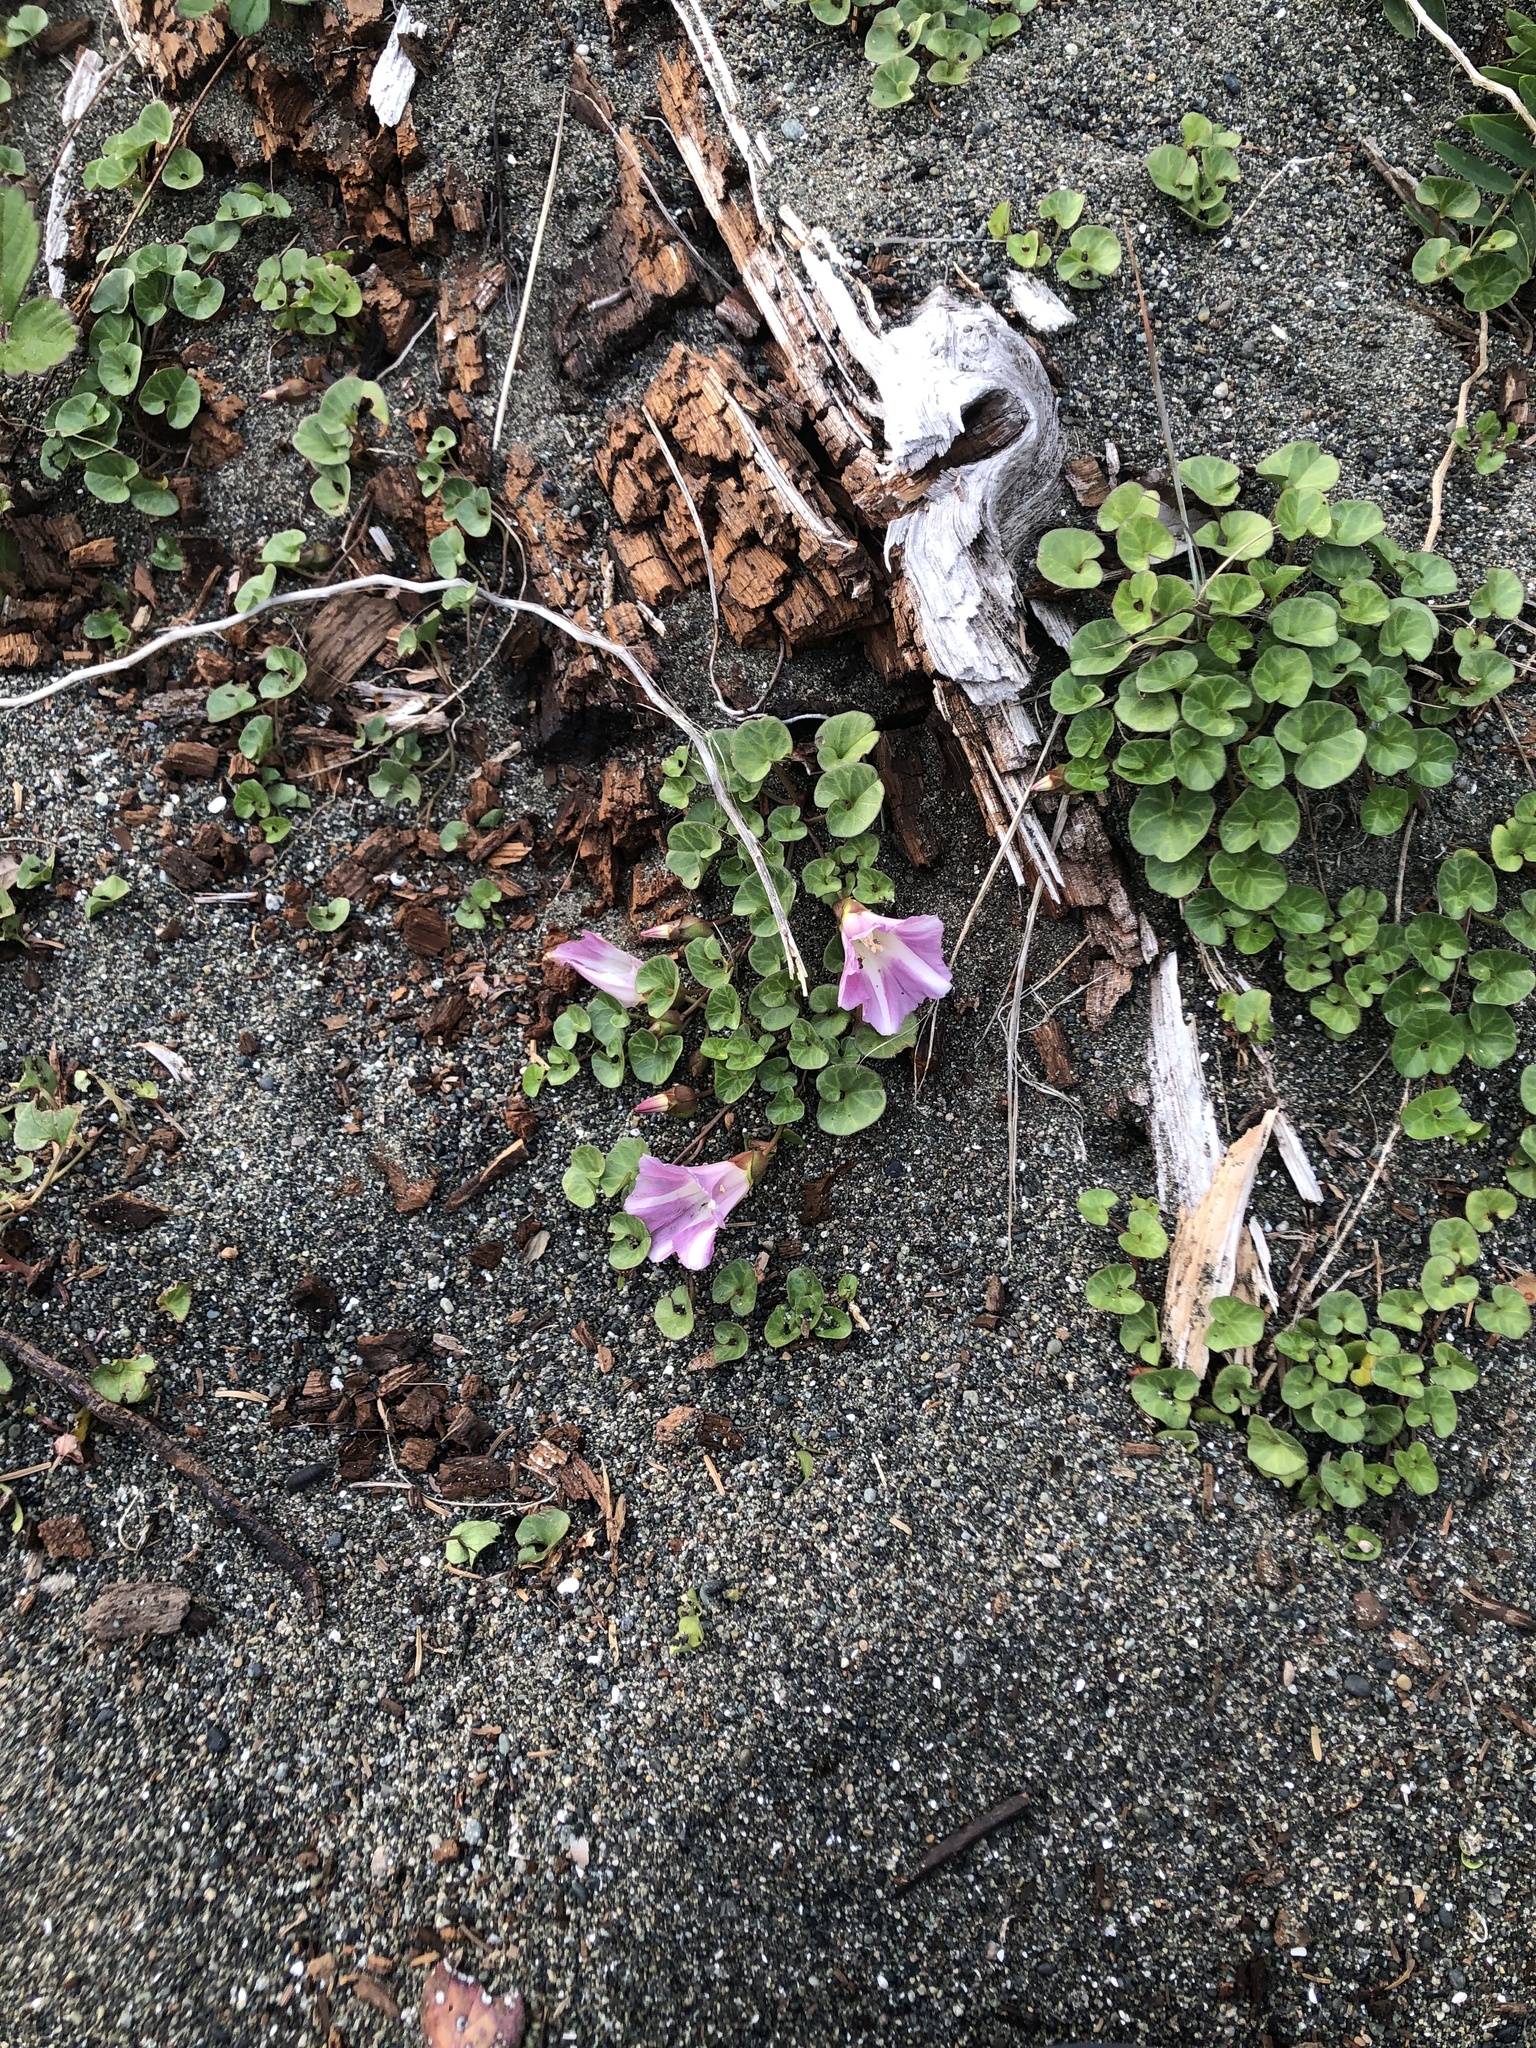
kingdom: Plantae
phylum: Tracheophyta
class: Magnoliopsida
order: Solanales
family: Convolvulaceae
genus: Calystegia
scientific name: Calystegia soldanella
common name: Sea bindweed
